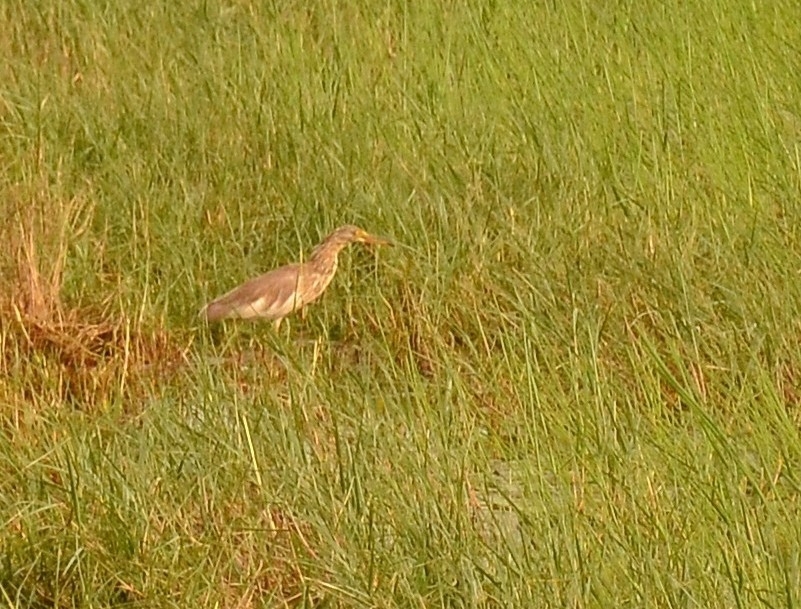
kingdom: Animalia
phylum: Chordata
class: Aves
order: Pelecaniformes
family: Ardeidae
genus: Ardeola
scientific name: Ardeola grayii
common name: Indian pond heron
